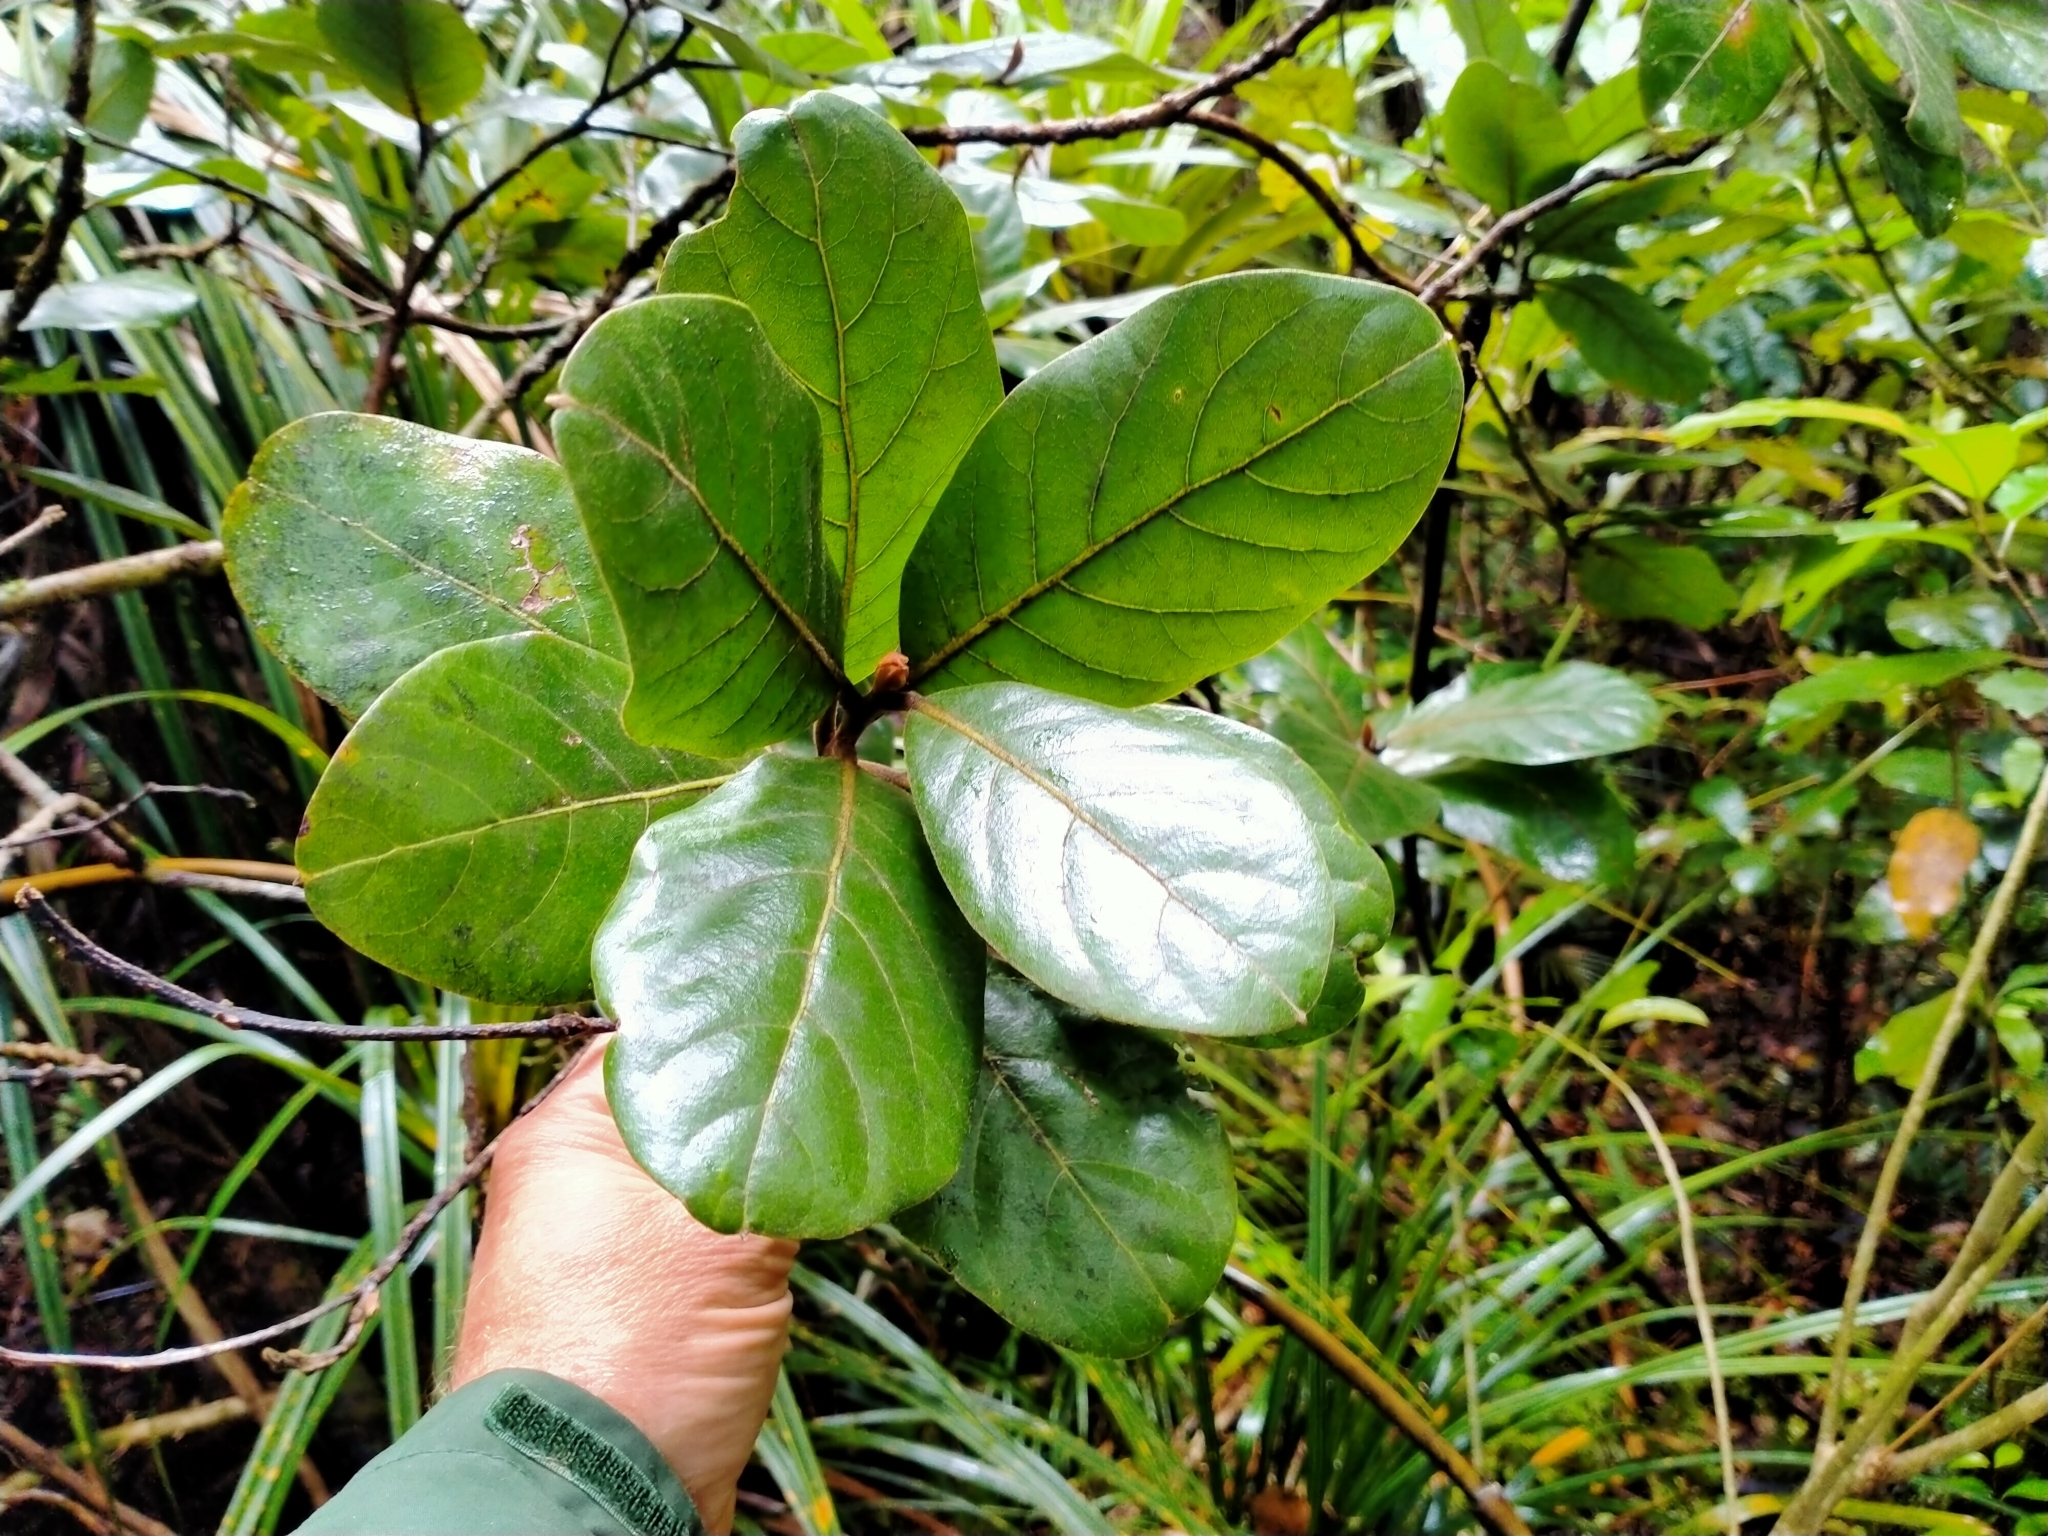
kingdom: Plantae
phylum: Tracheophyta
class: Magnoliopsida
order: Laurales
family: Lauraceae
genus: Beilschmiedia
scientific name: Beilschmiedia tarairi
